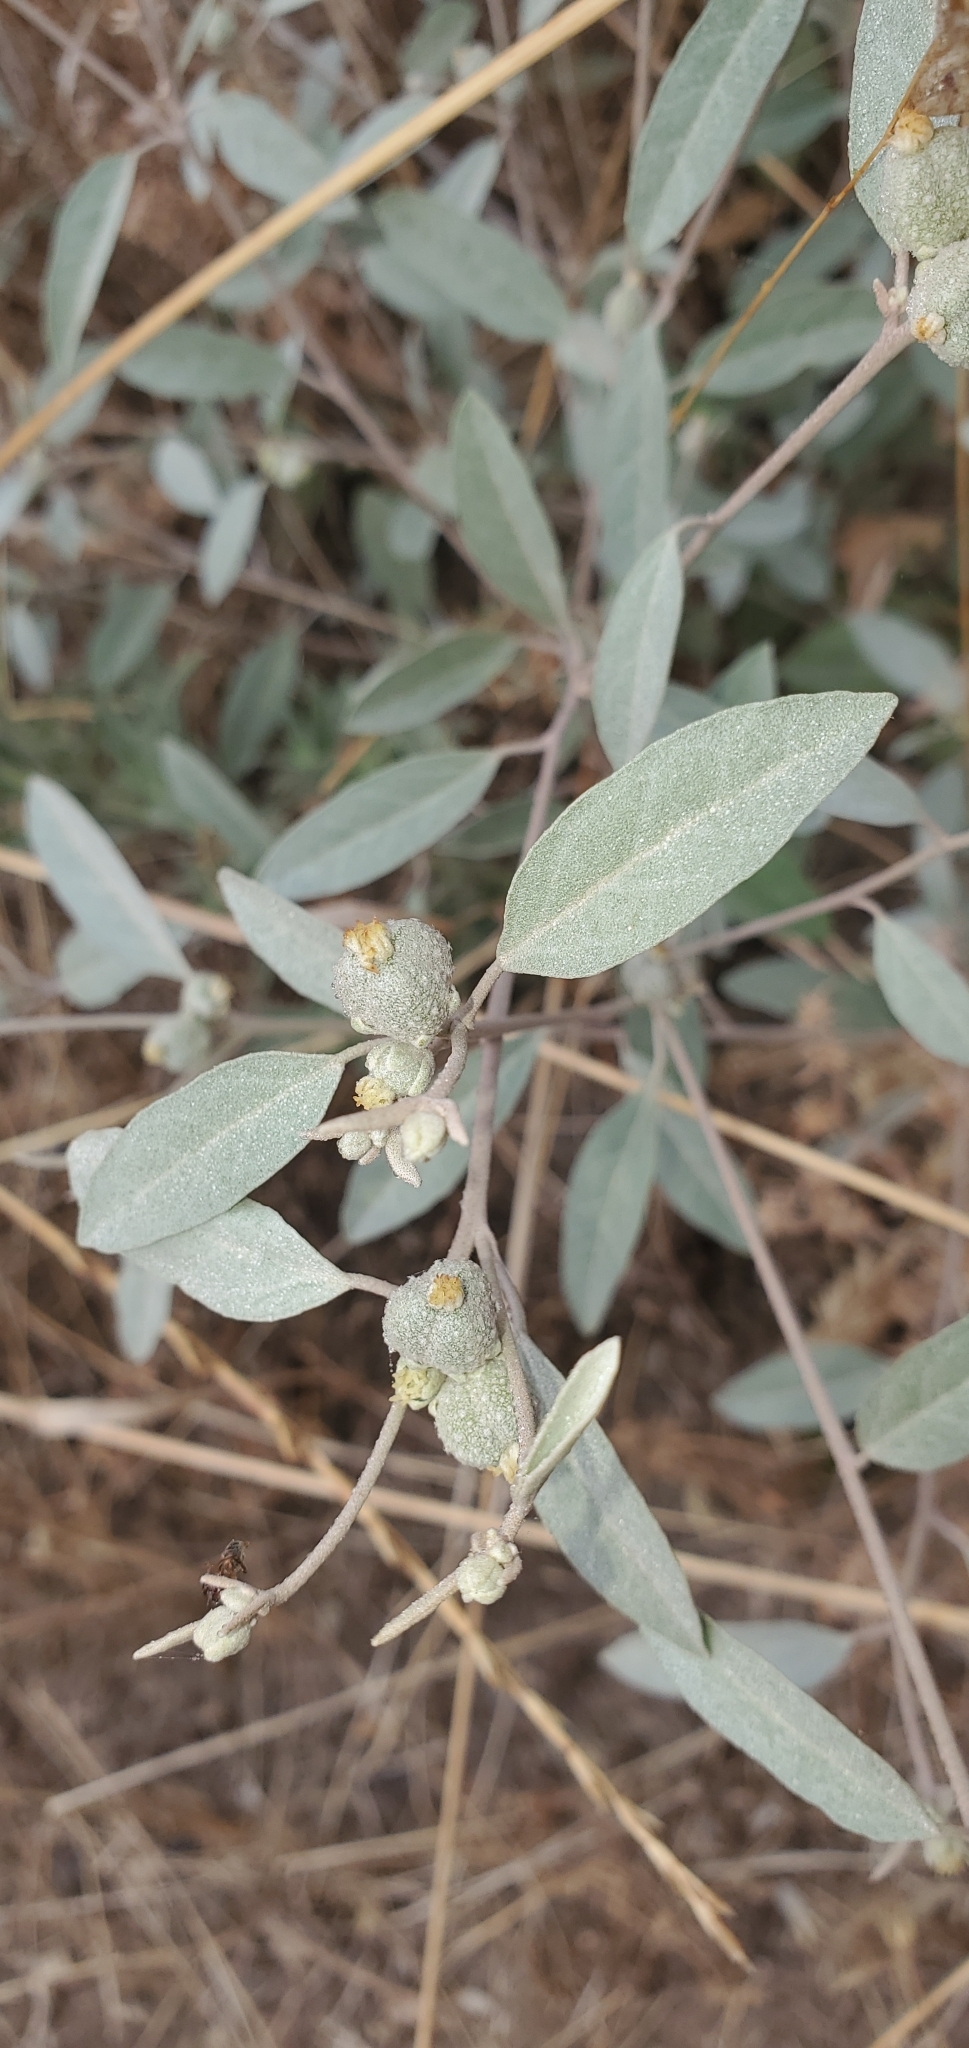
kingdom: Plantae
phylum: Tracheophyta
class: Magnoliopsida
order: Malpighiales
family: Euphorbiaceae
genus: Croton
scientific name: Croton californicus
